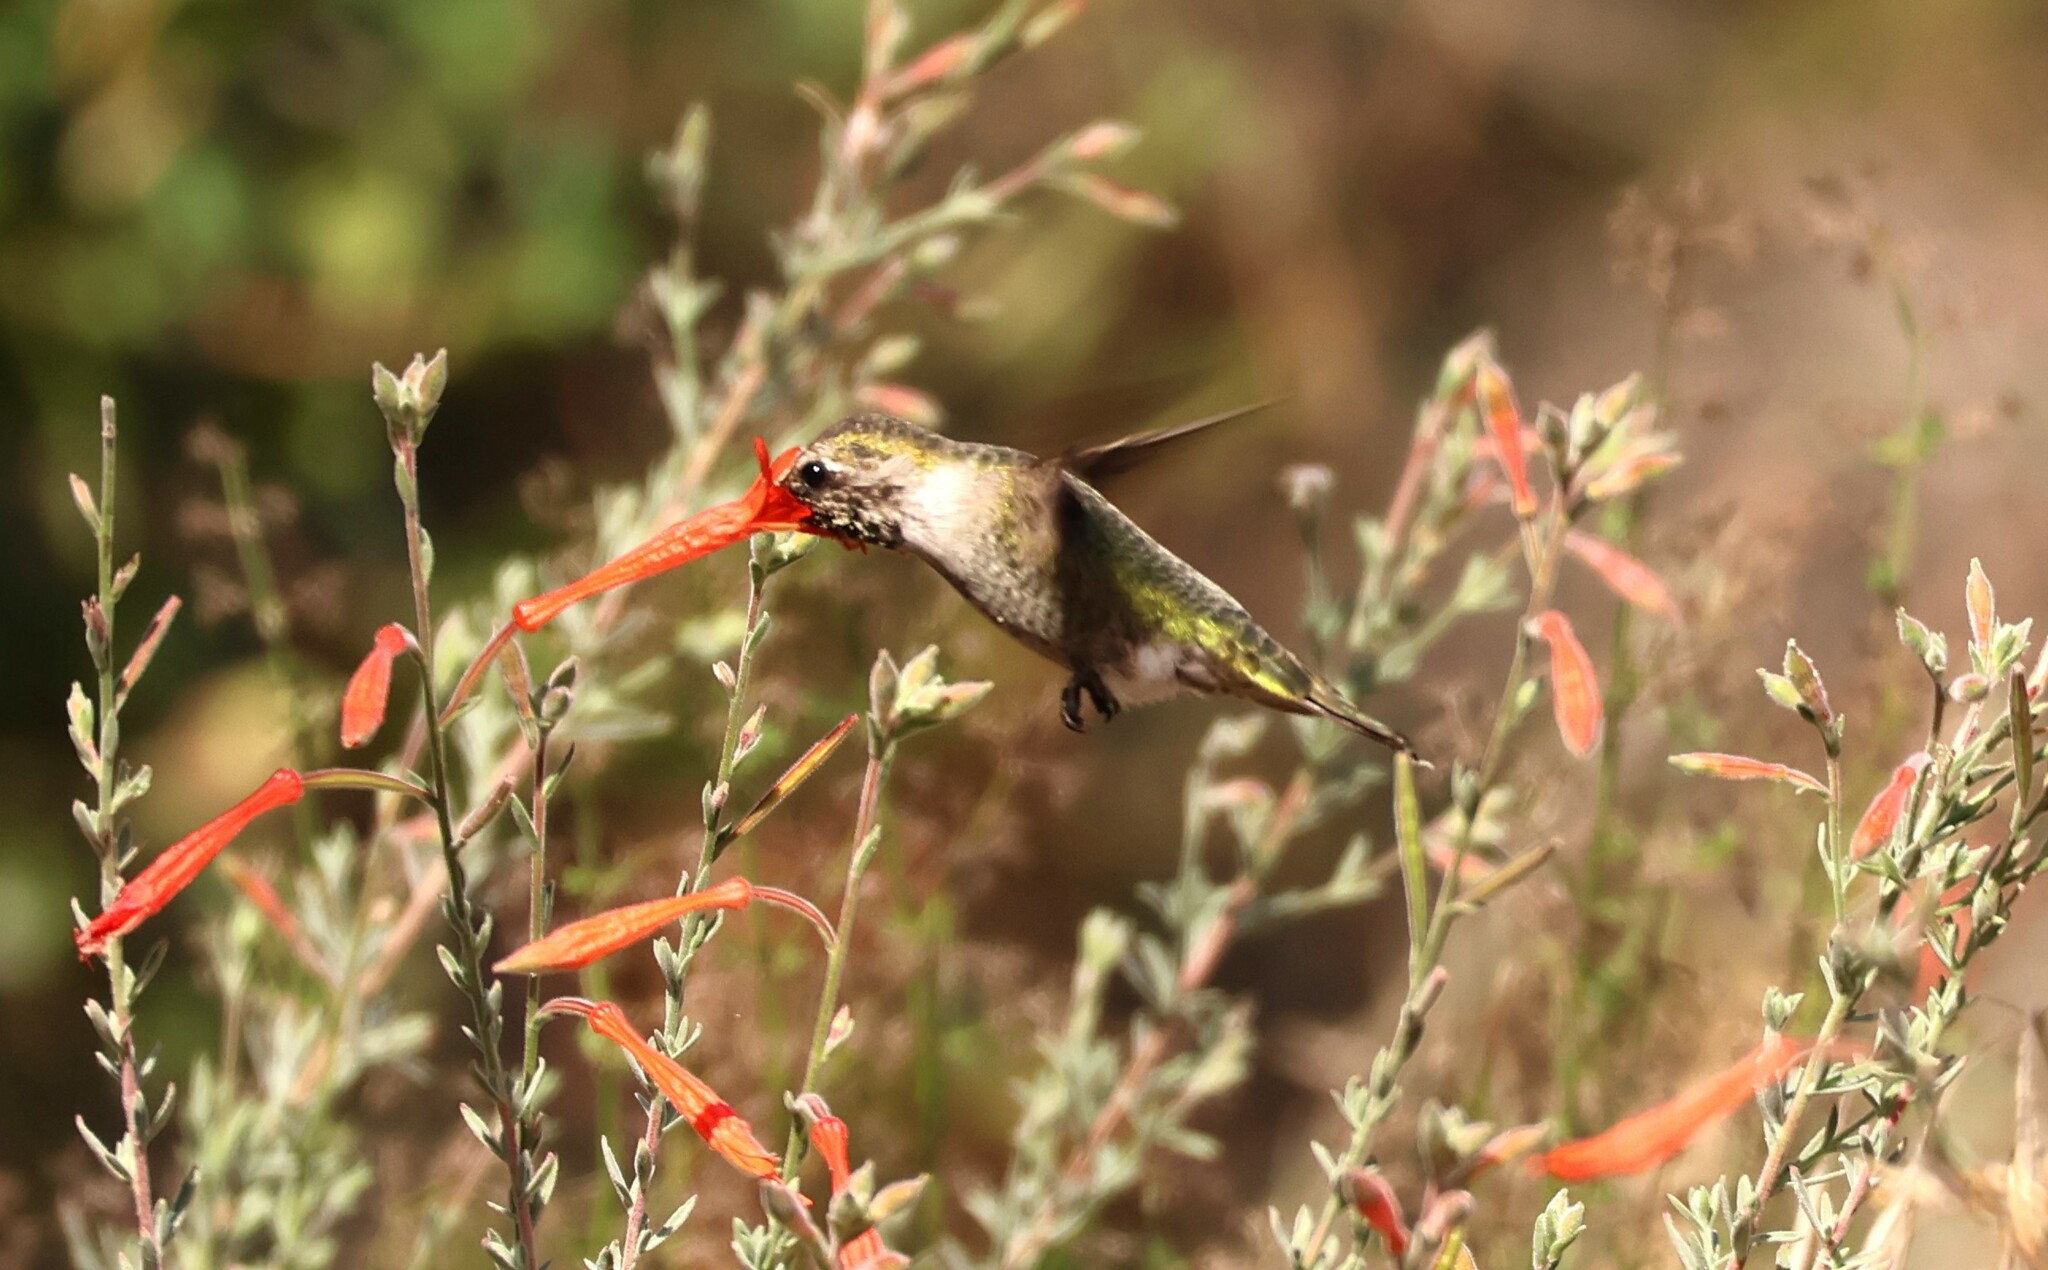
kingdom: Animalia
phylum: Chordata
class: Aves
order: Apodiformes
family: Trochilidae
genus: Calypte
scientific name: Calypte anna
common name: Anna's hummingbird
